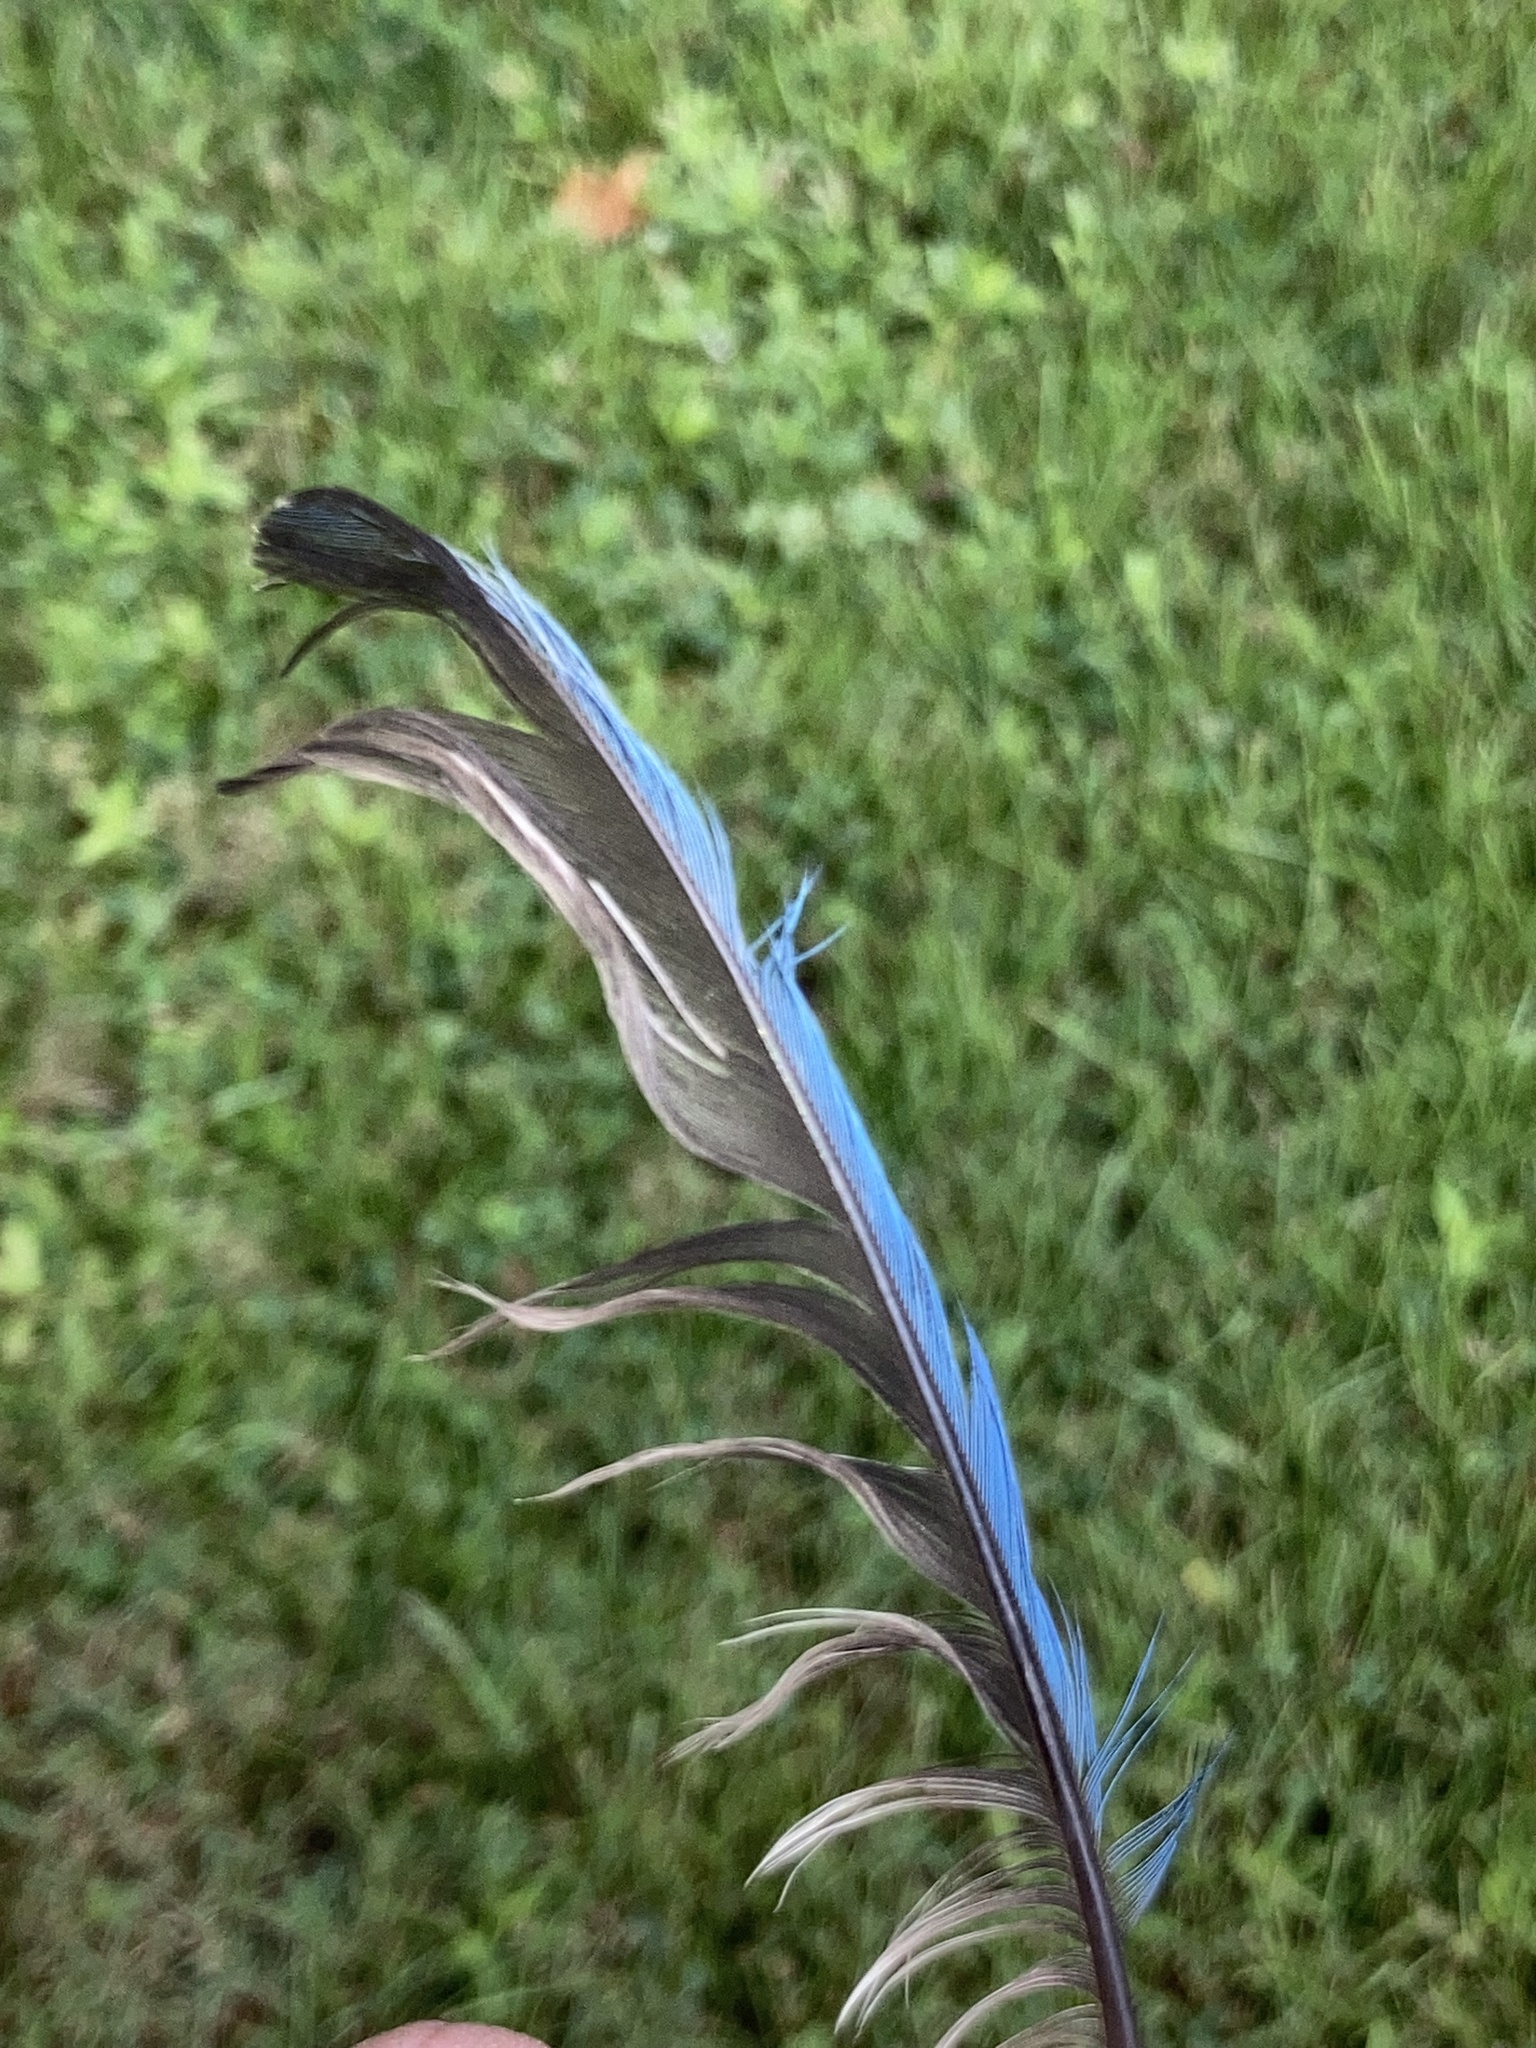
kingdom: Animalia
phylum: Chordata
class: Aves
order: Passeriformes
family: Corvidae
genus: Cyanocitta
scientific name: Cyanocitta cristata
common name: Blue jay
